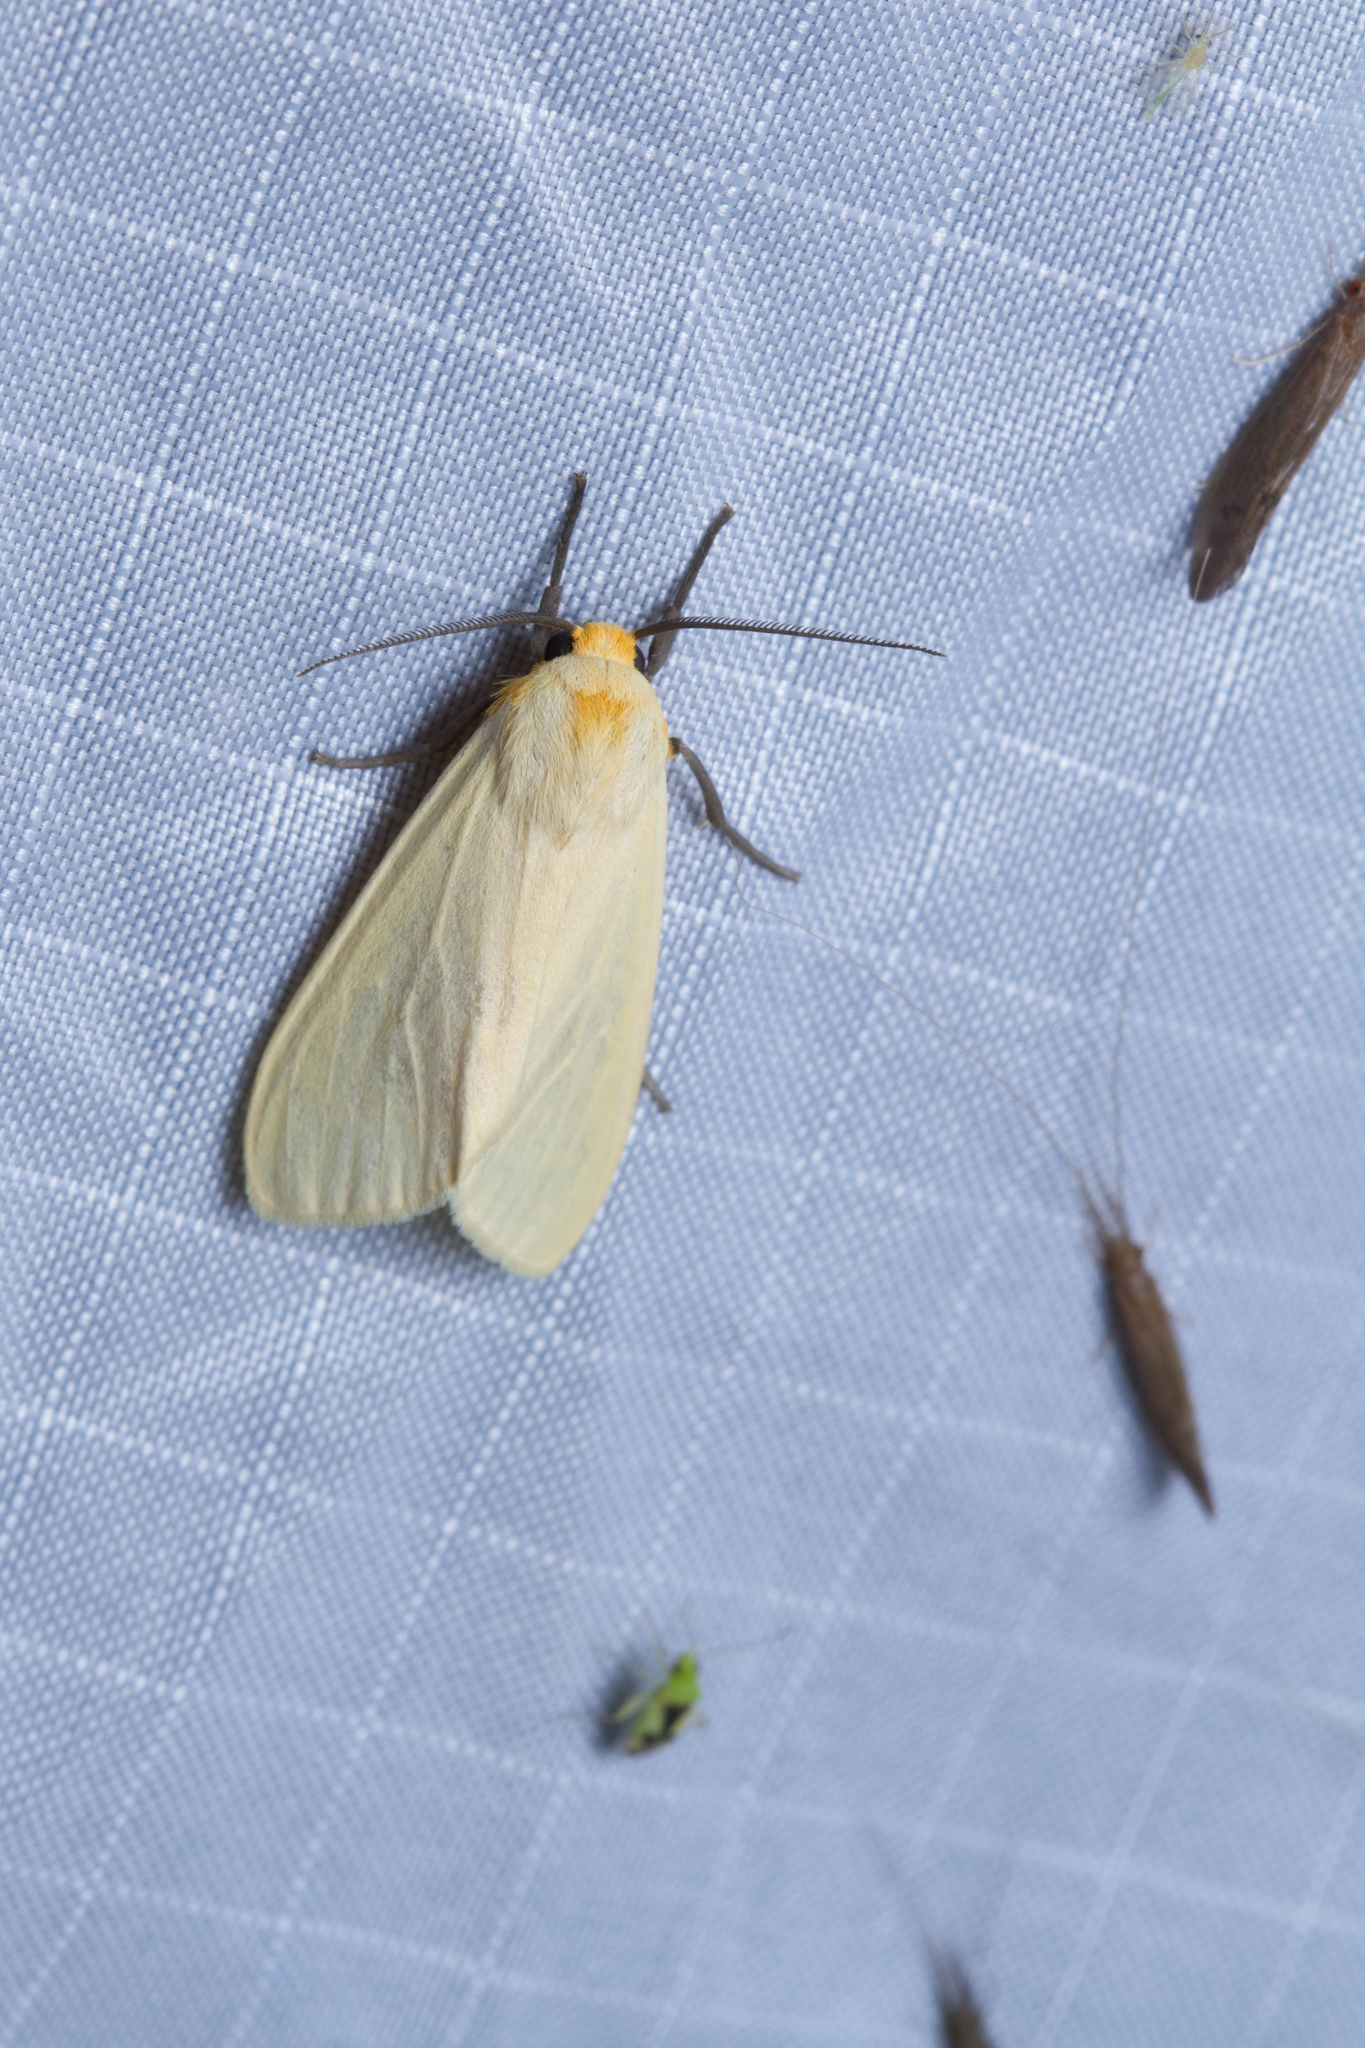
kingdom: Animalia
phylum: Arthropoda
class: Insecta
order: Lepidoptera
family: Erebidae
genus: Pareuchaetes
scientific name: Pareuchaetes insulata
